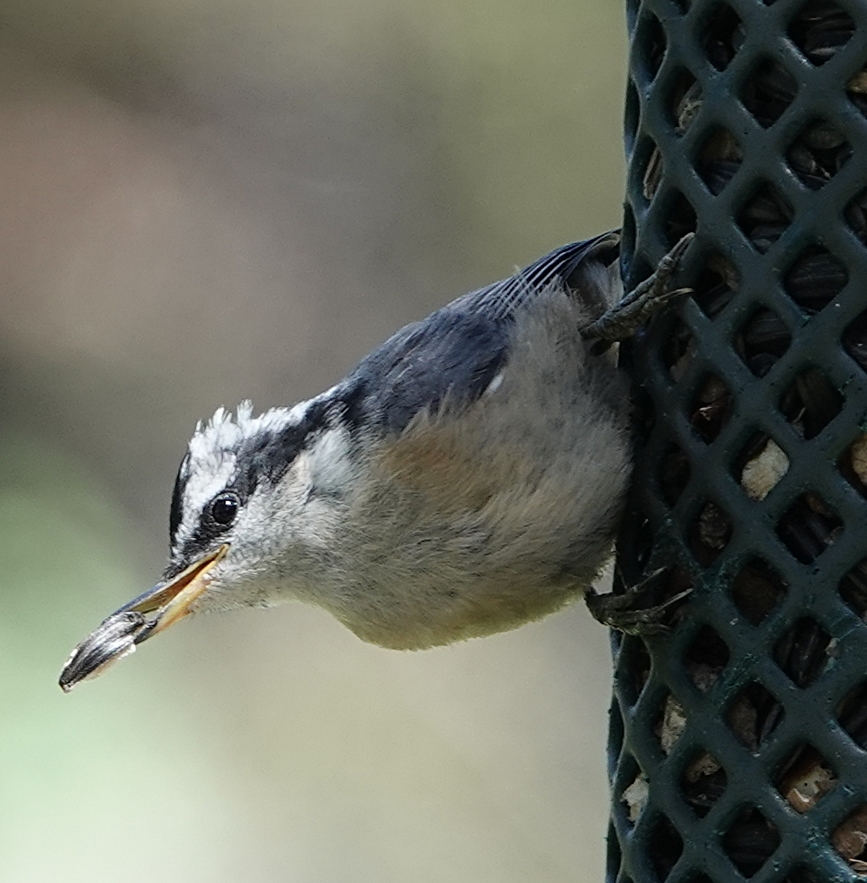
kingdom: Animalia
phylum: Chordata
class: Aves
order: Passeriformes
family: Sittidae
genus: Sitta
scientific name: Sitta canadensis
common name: Red-breasted nuthatch
